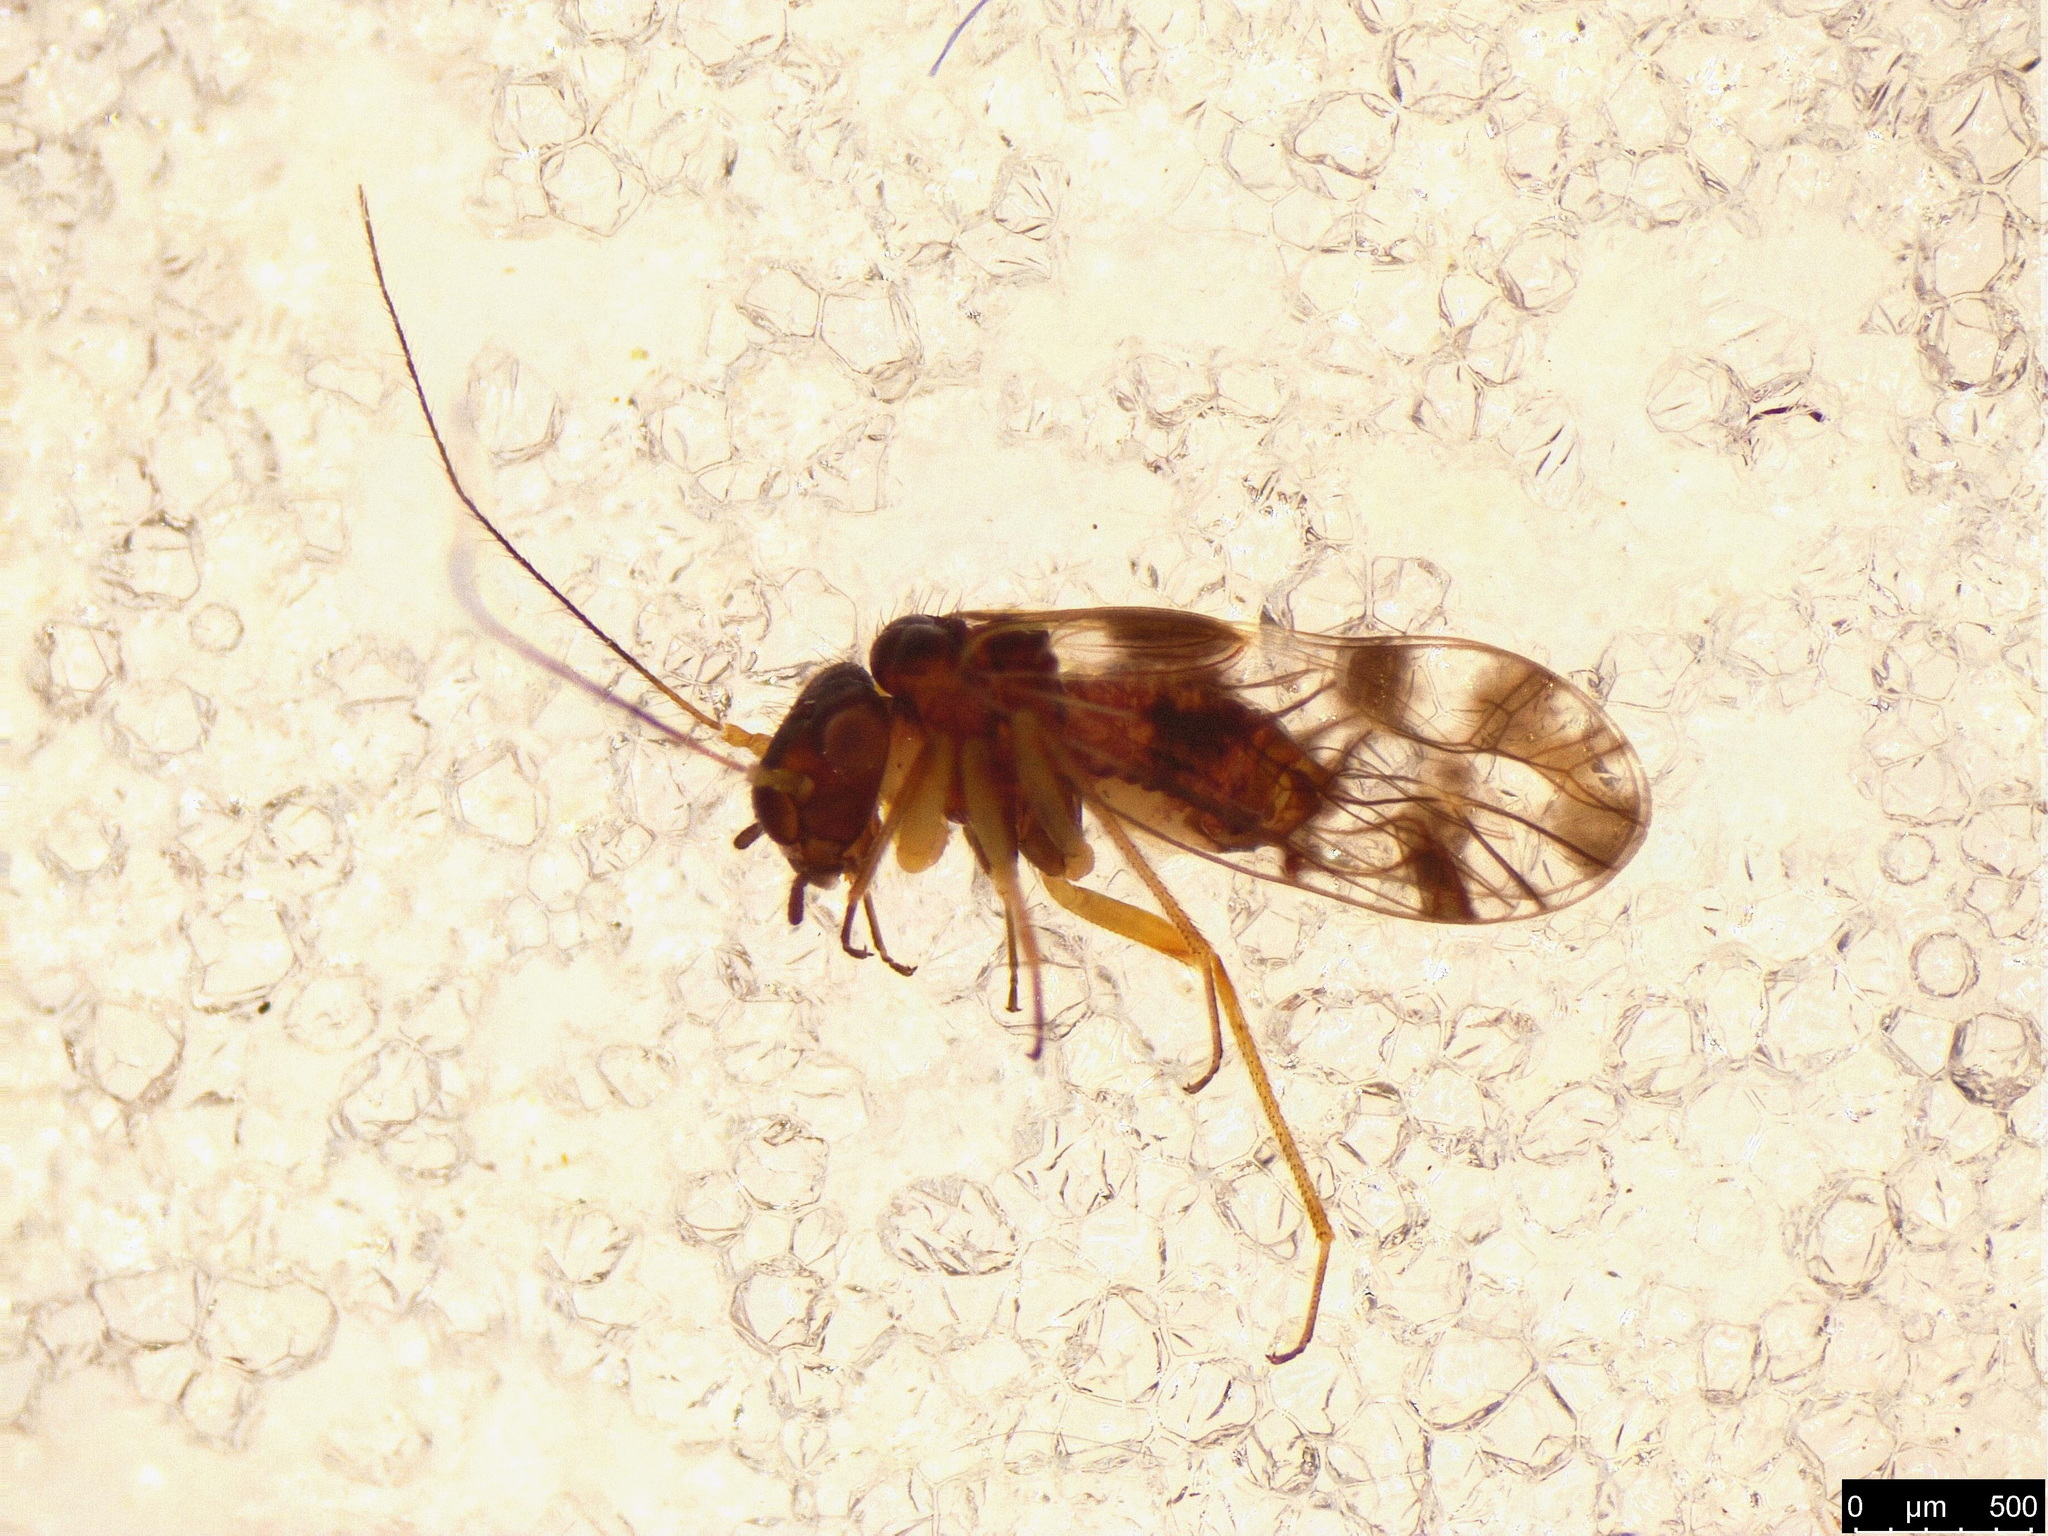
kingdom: Animalia
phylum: Arthropoda
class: Insecta
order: Psocodea
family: Elipsocidae
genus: Propsocus
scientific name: Propsocus pulchripennis
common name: Bark louse
